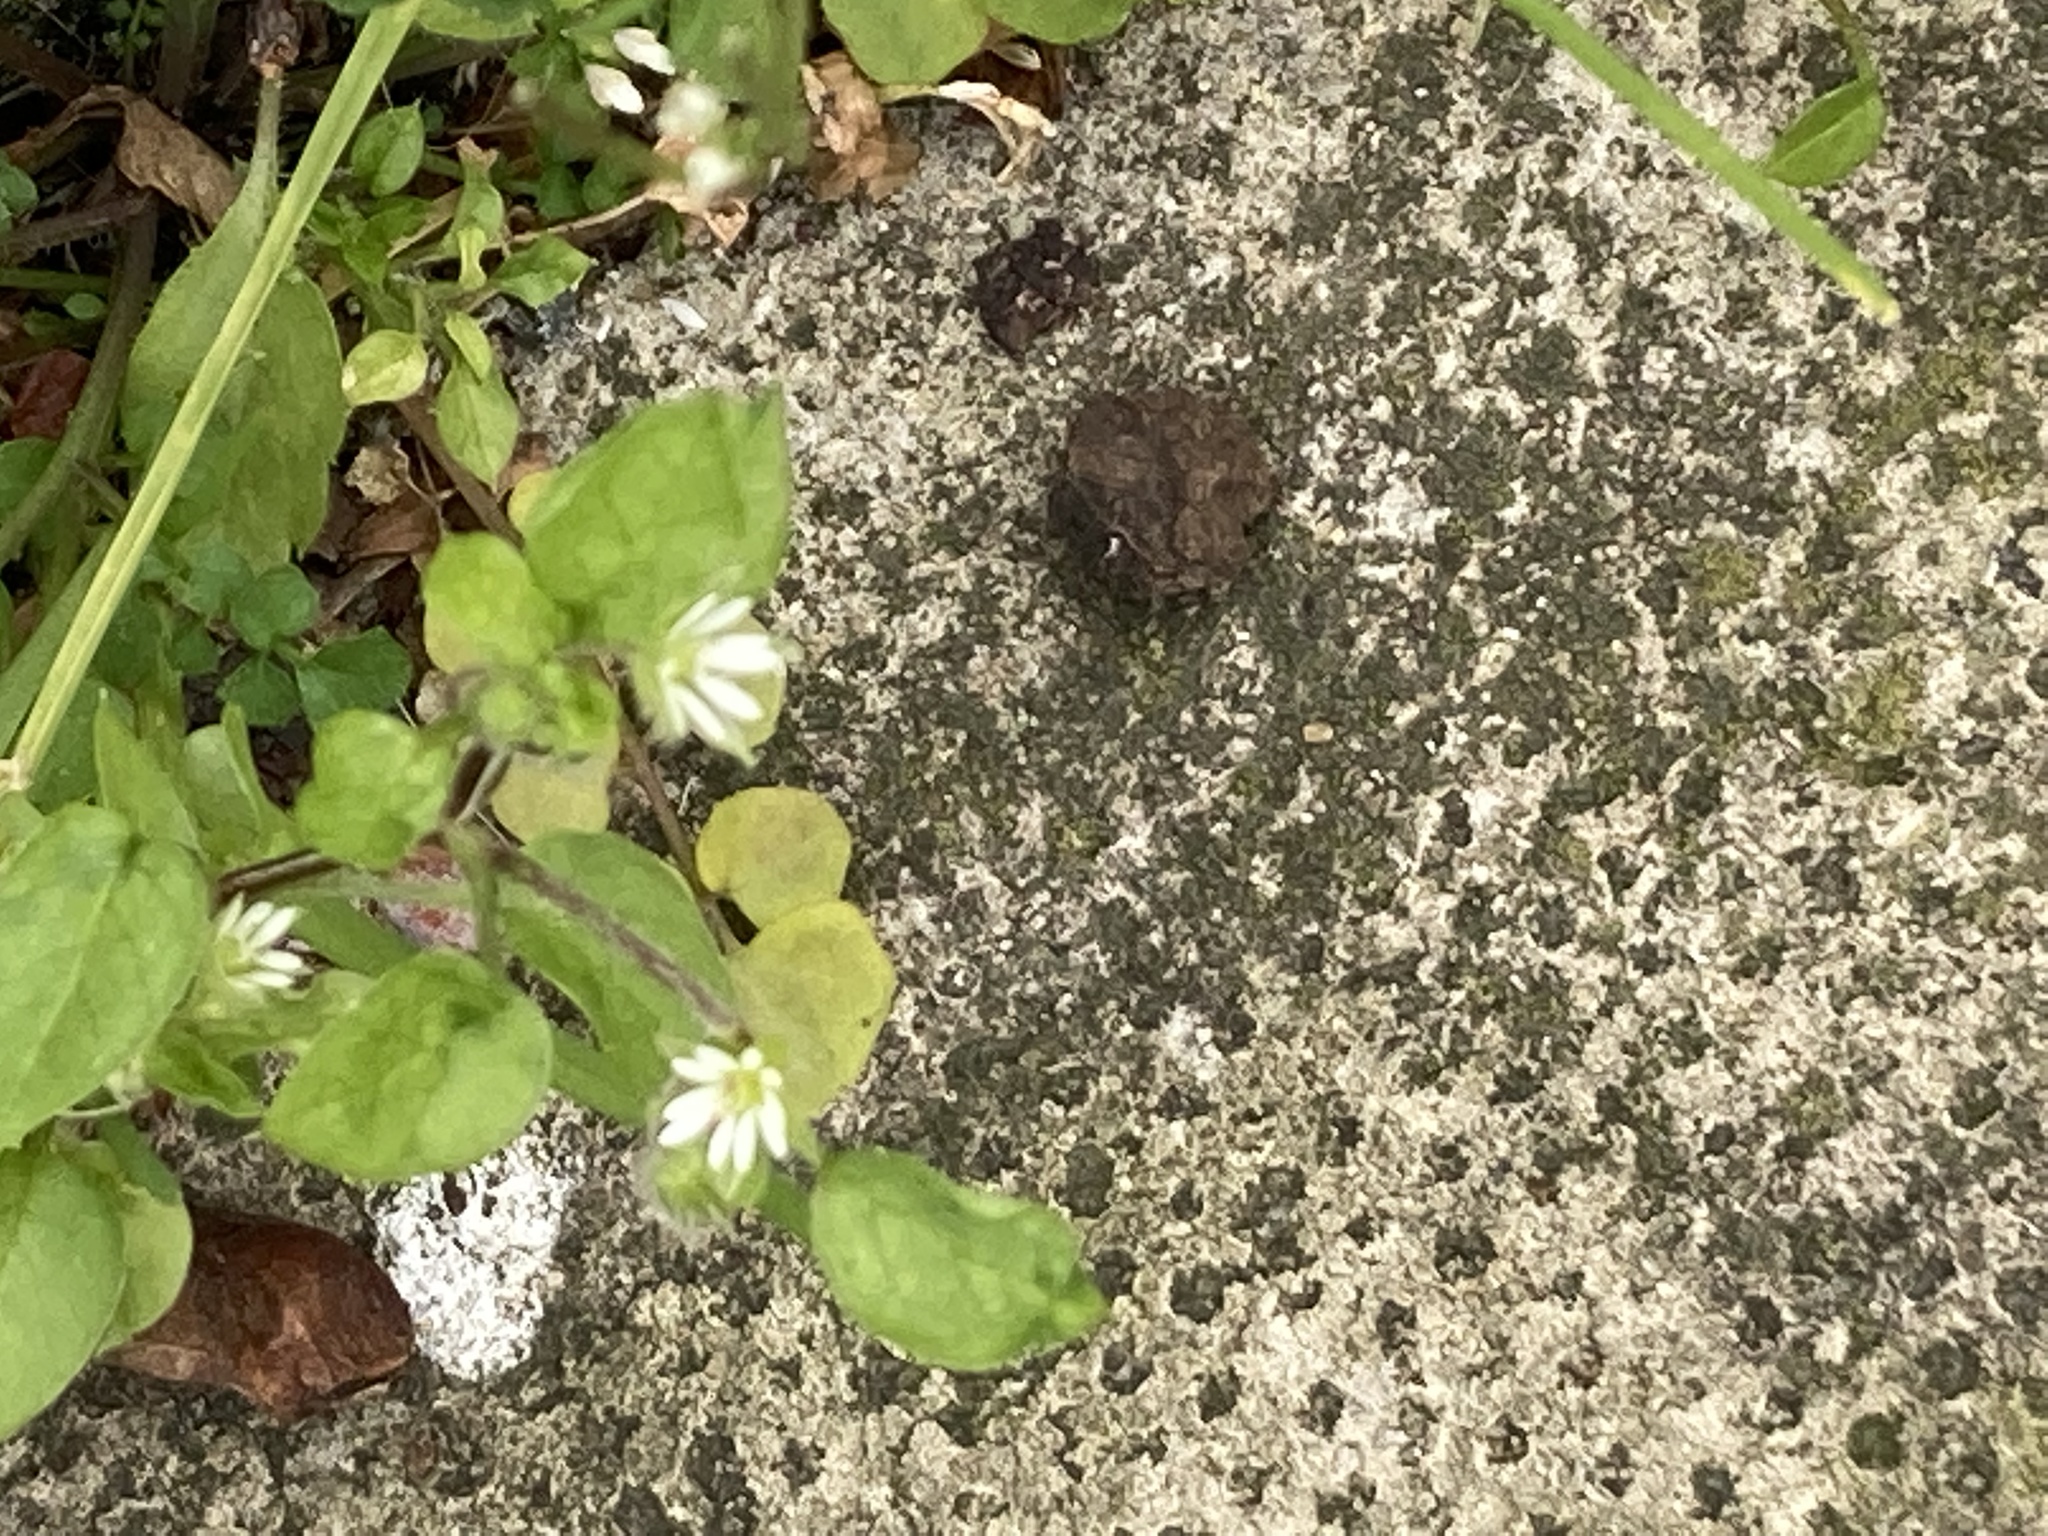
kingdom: Plantae
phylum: Tracheophyta
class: Magnoliopsida
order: Caryophyllales
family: Caryophyllaceae
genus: Stellaria
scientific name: Stellaria media
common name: Common chickweed
